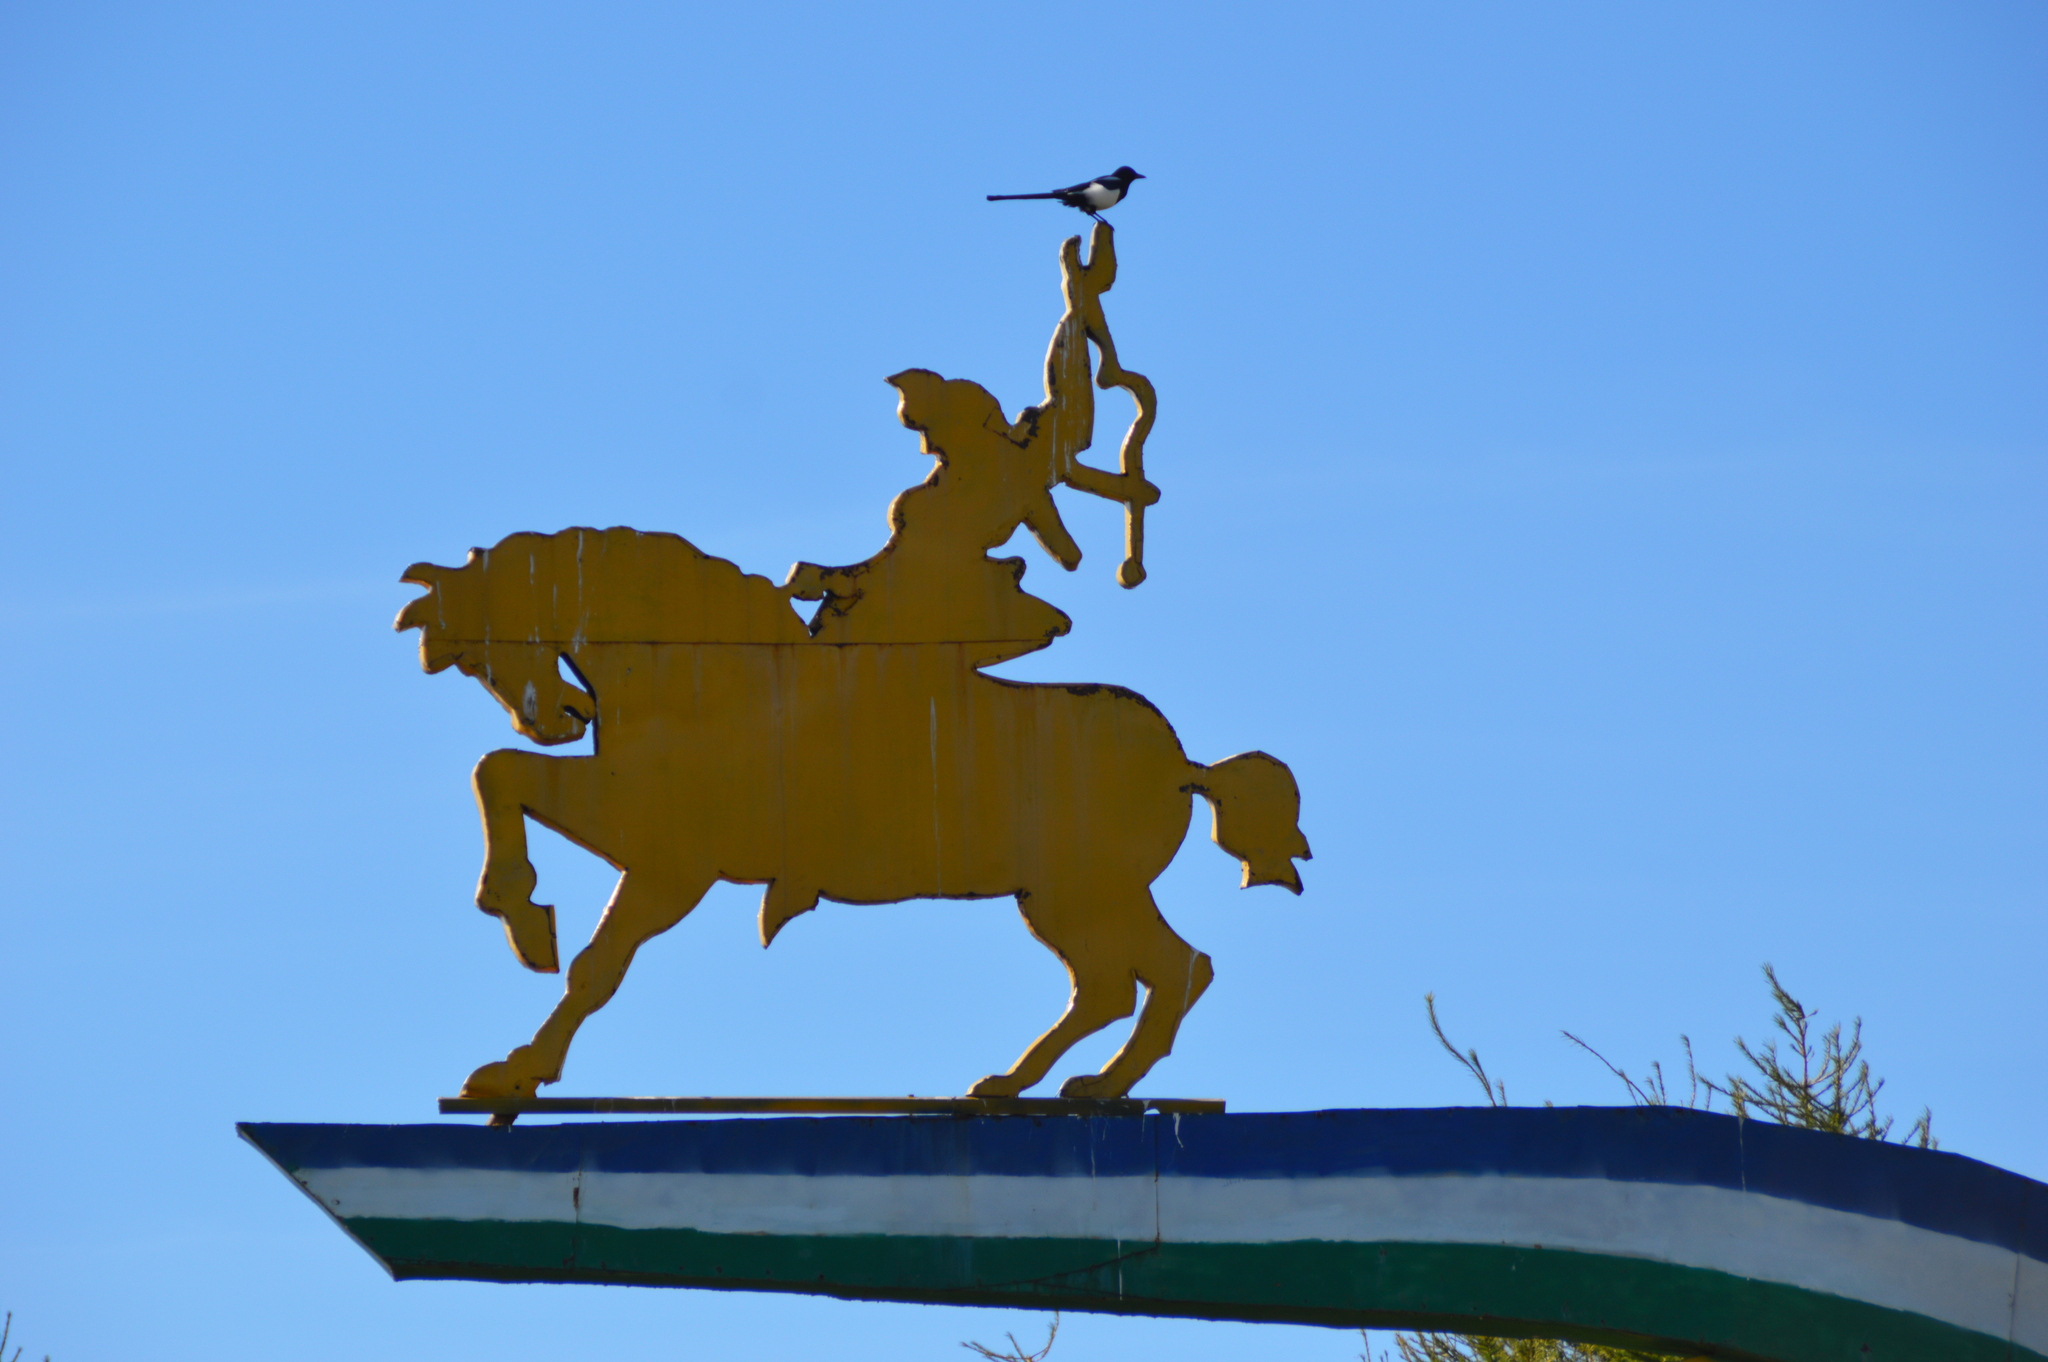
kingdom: Animalia
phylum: Chordata
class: Aves
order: Passeriformes
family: Corvidae
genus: Pica
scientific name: Pica pica
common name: Eurasian magpie
